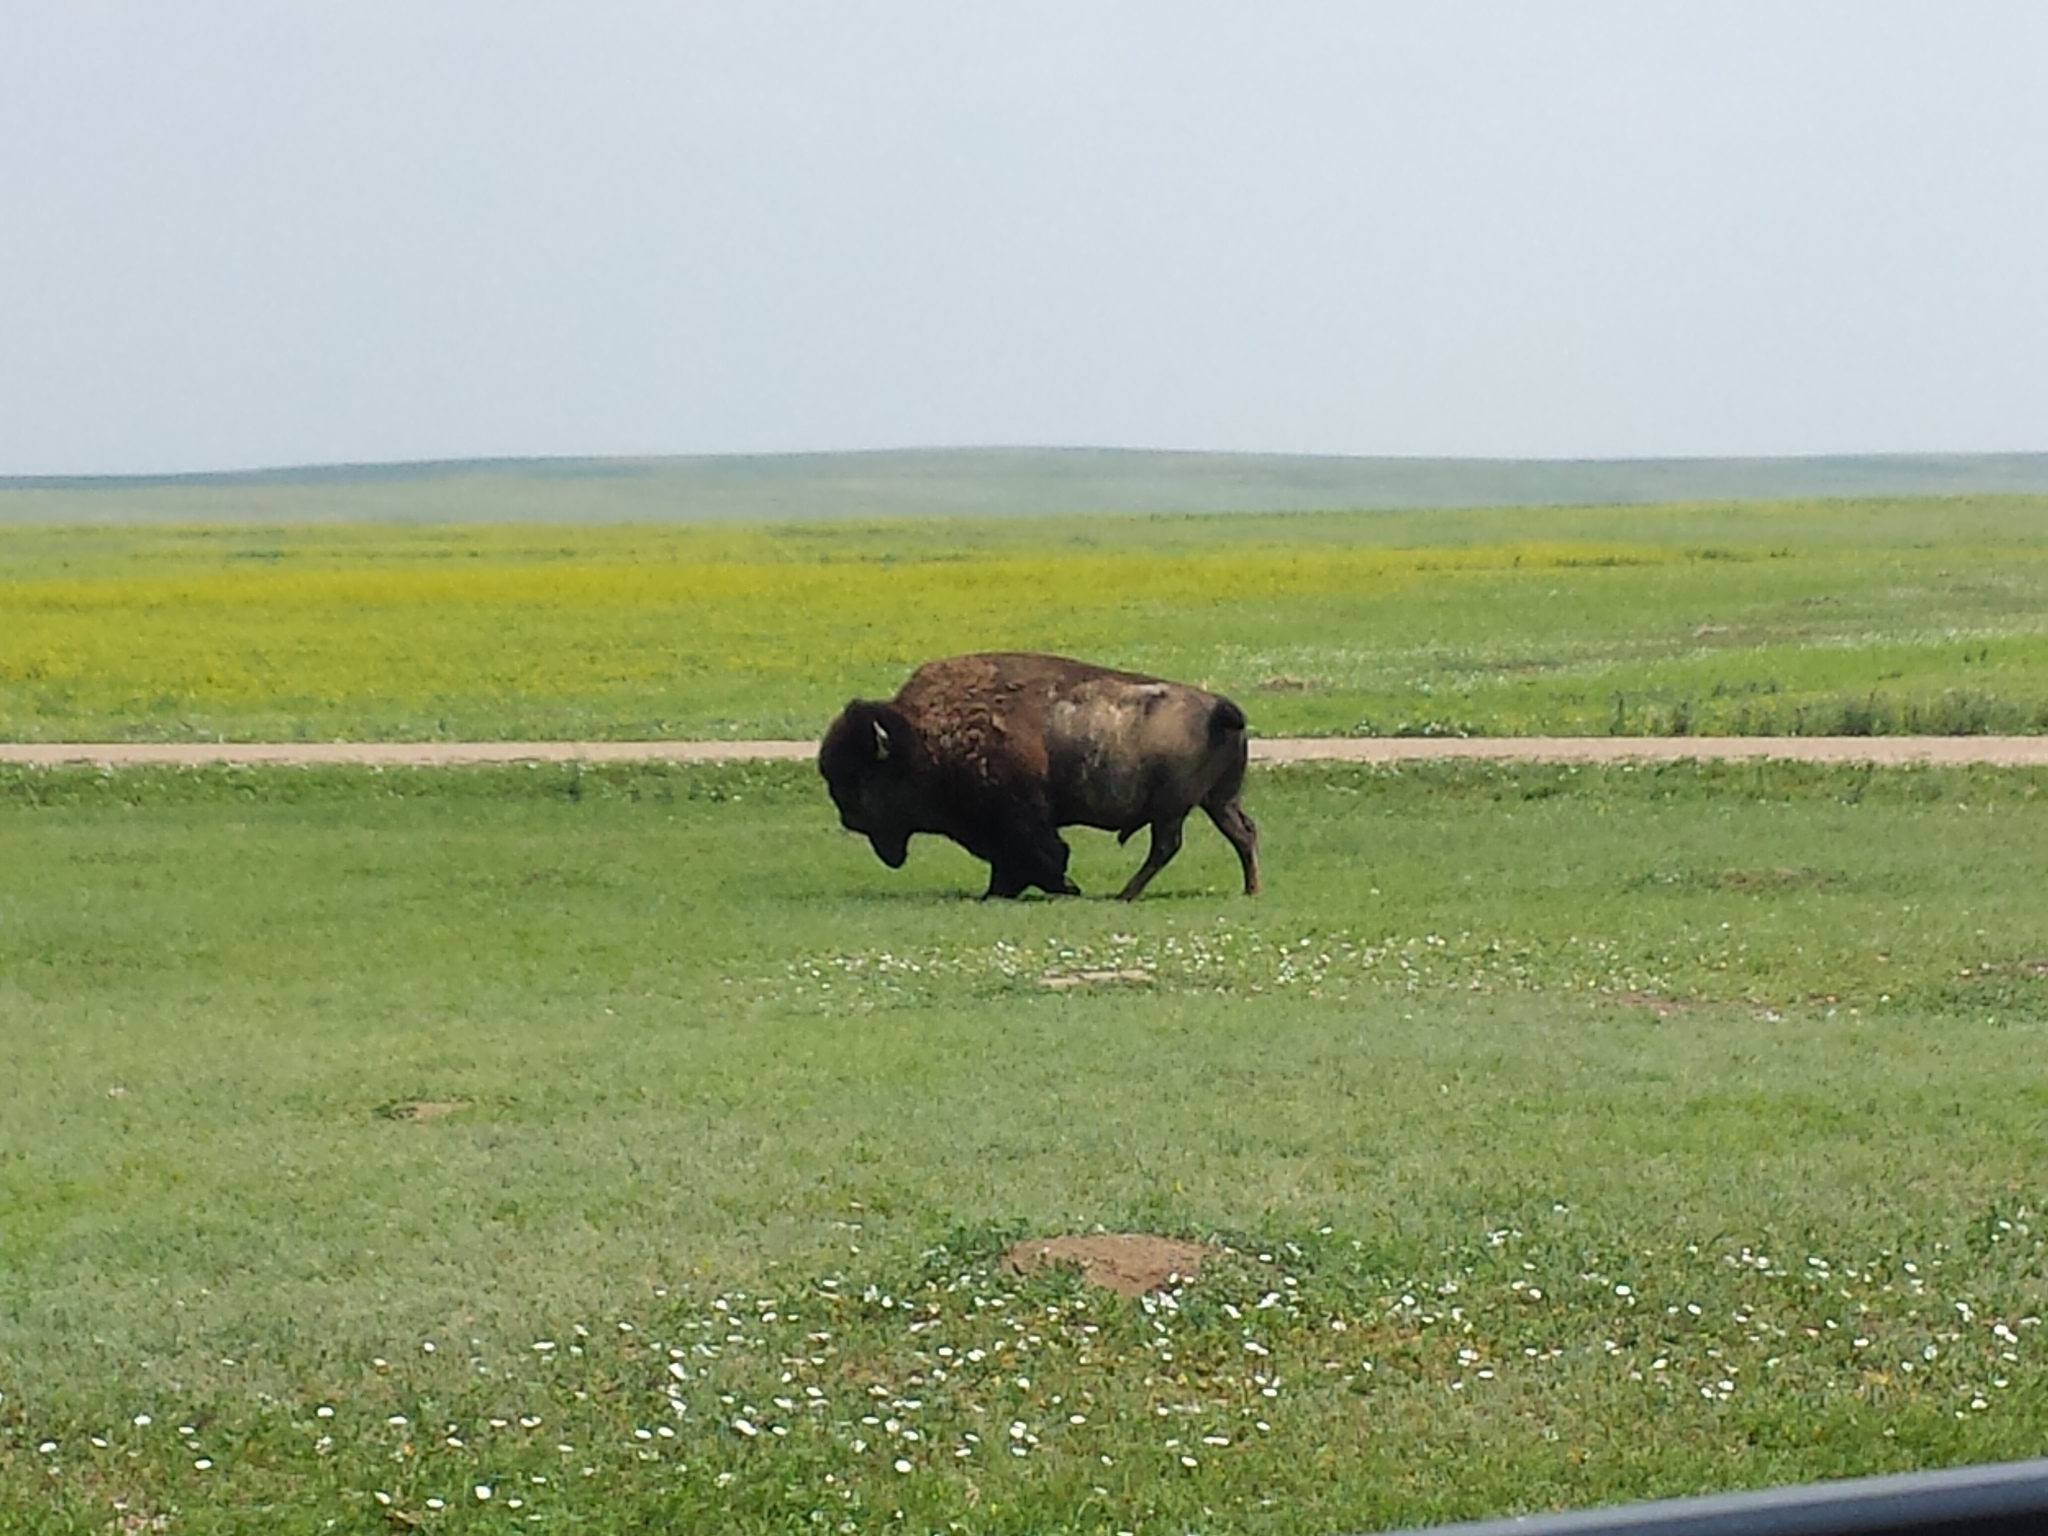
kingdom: Animalia
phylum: Chordata
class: Mammalia
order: Artiodactyla
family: Bovidae
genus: Bison
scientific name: Bison bison
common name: American bison
